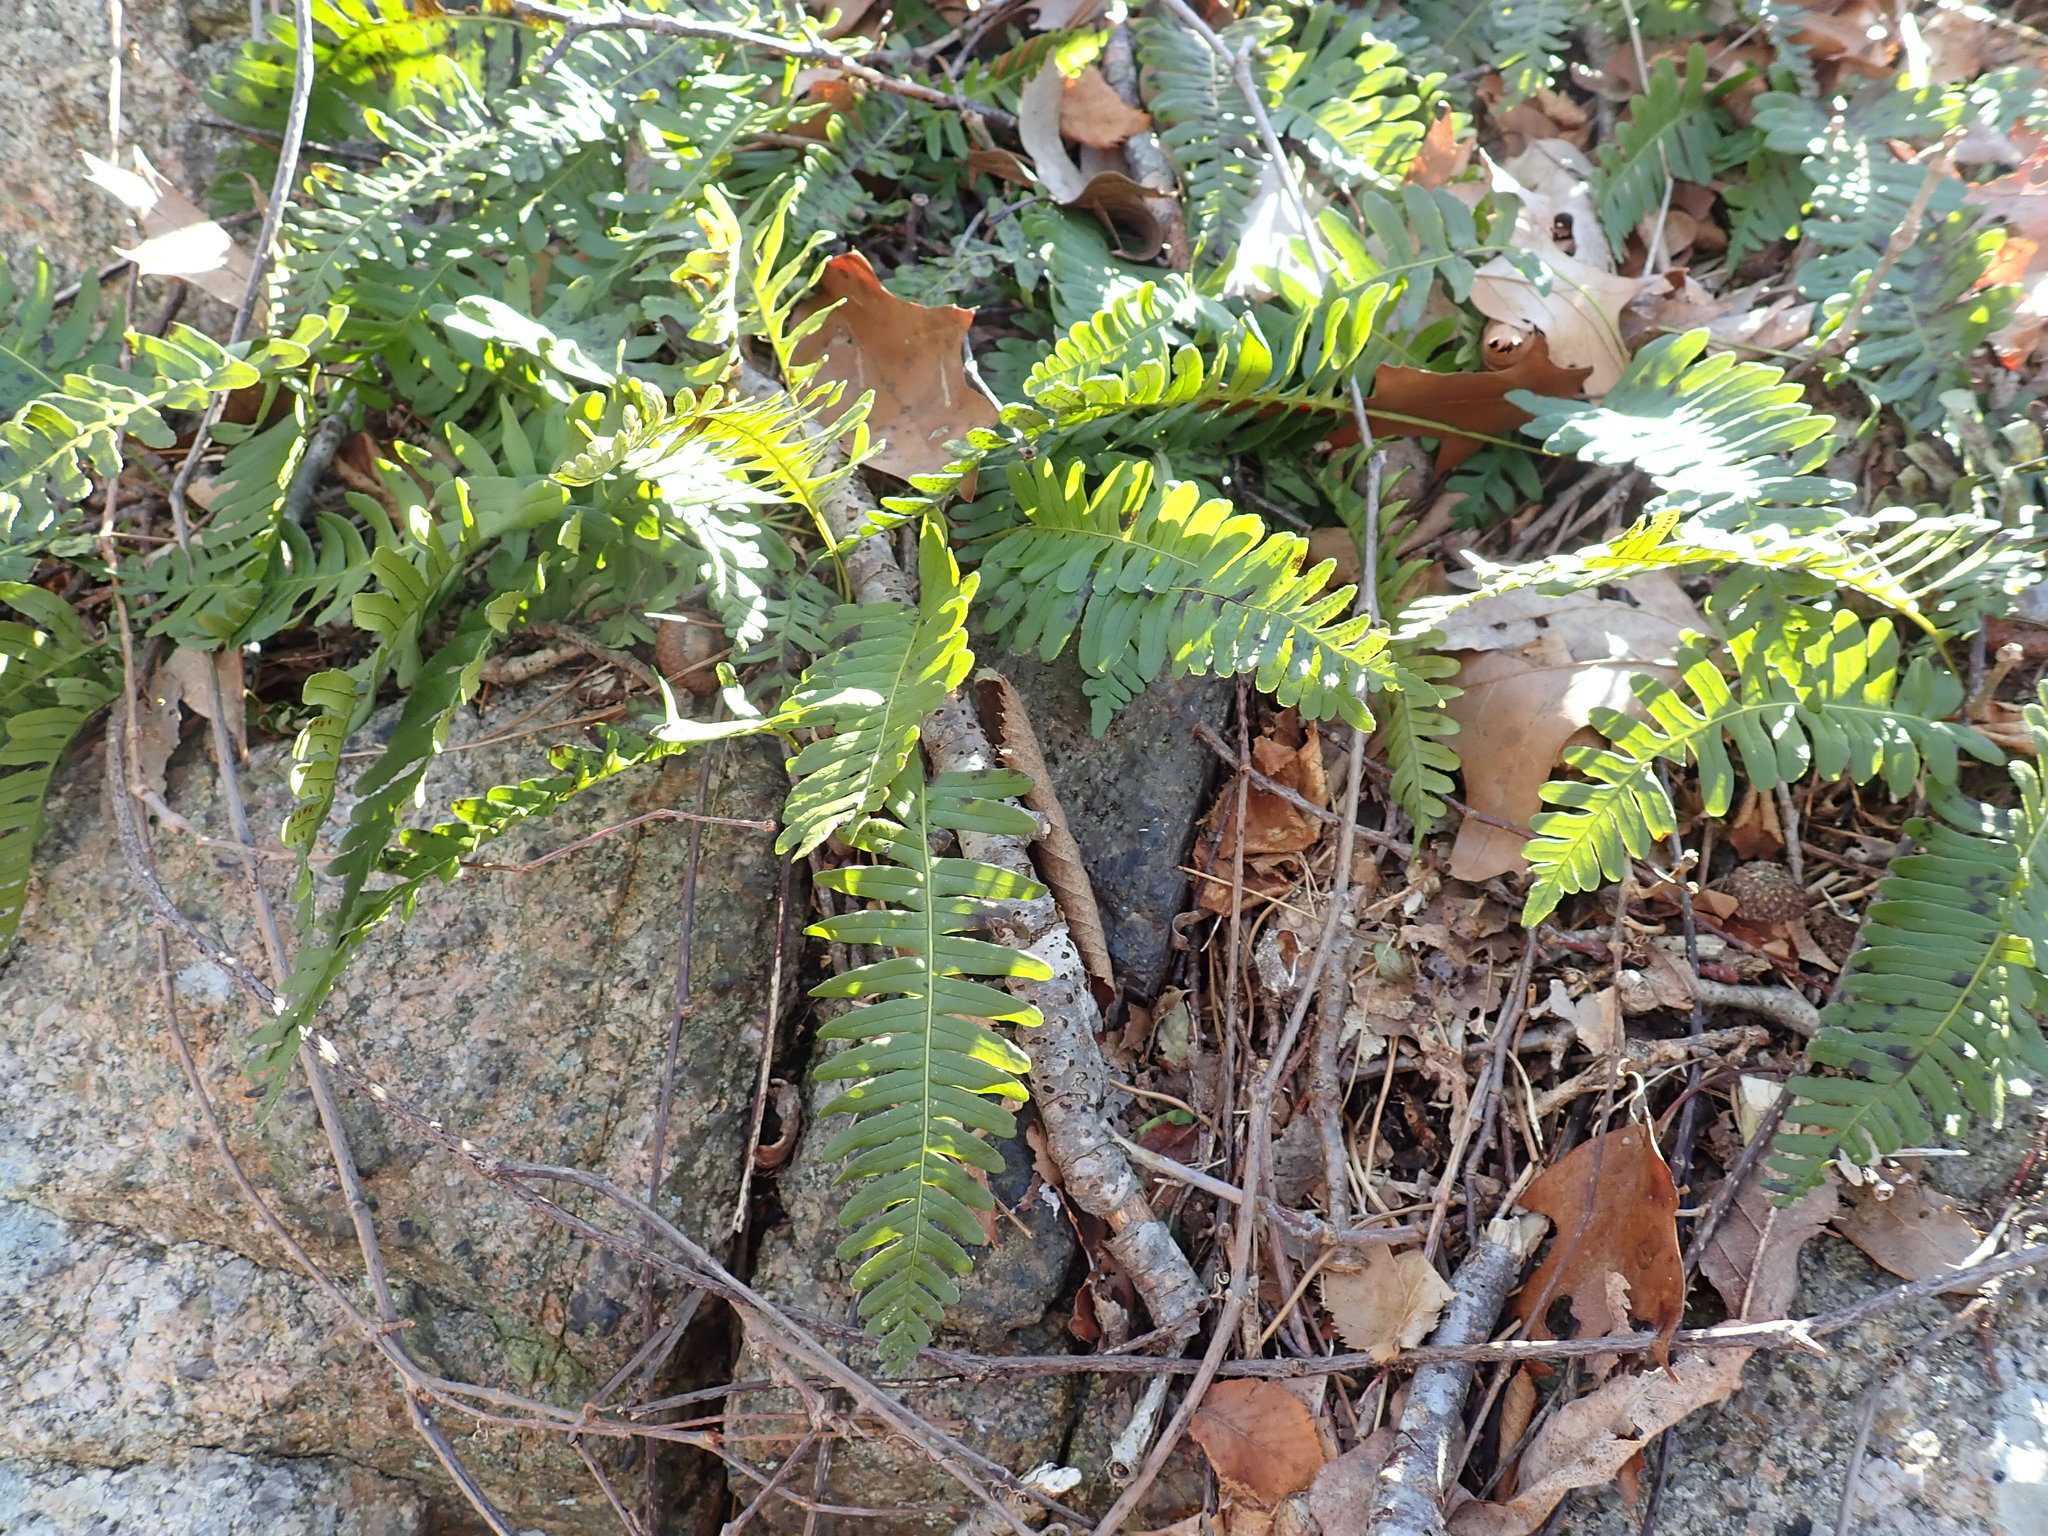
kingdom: Plantae
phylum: Tracheophyta
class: Polypodiopsida
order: Polypodiales
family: Polypodiaceae
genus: Polypodium
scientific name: Polypodium
